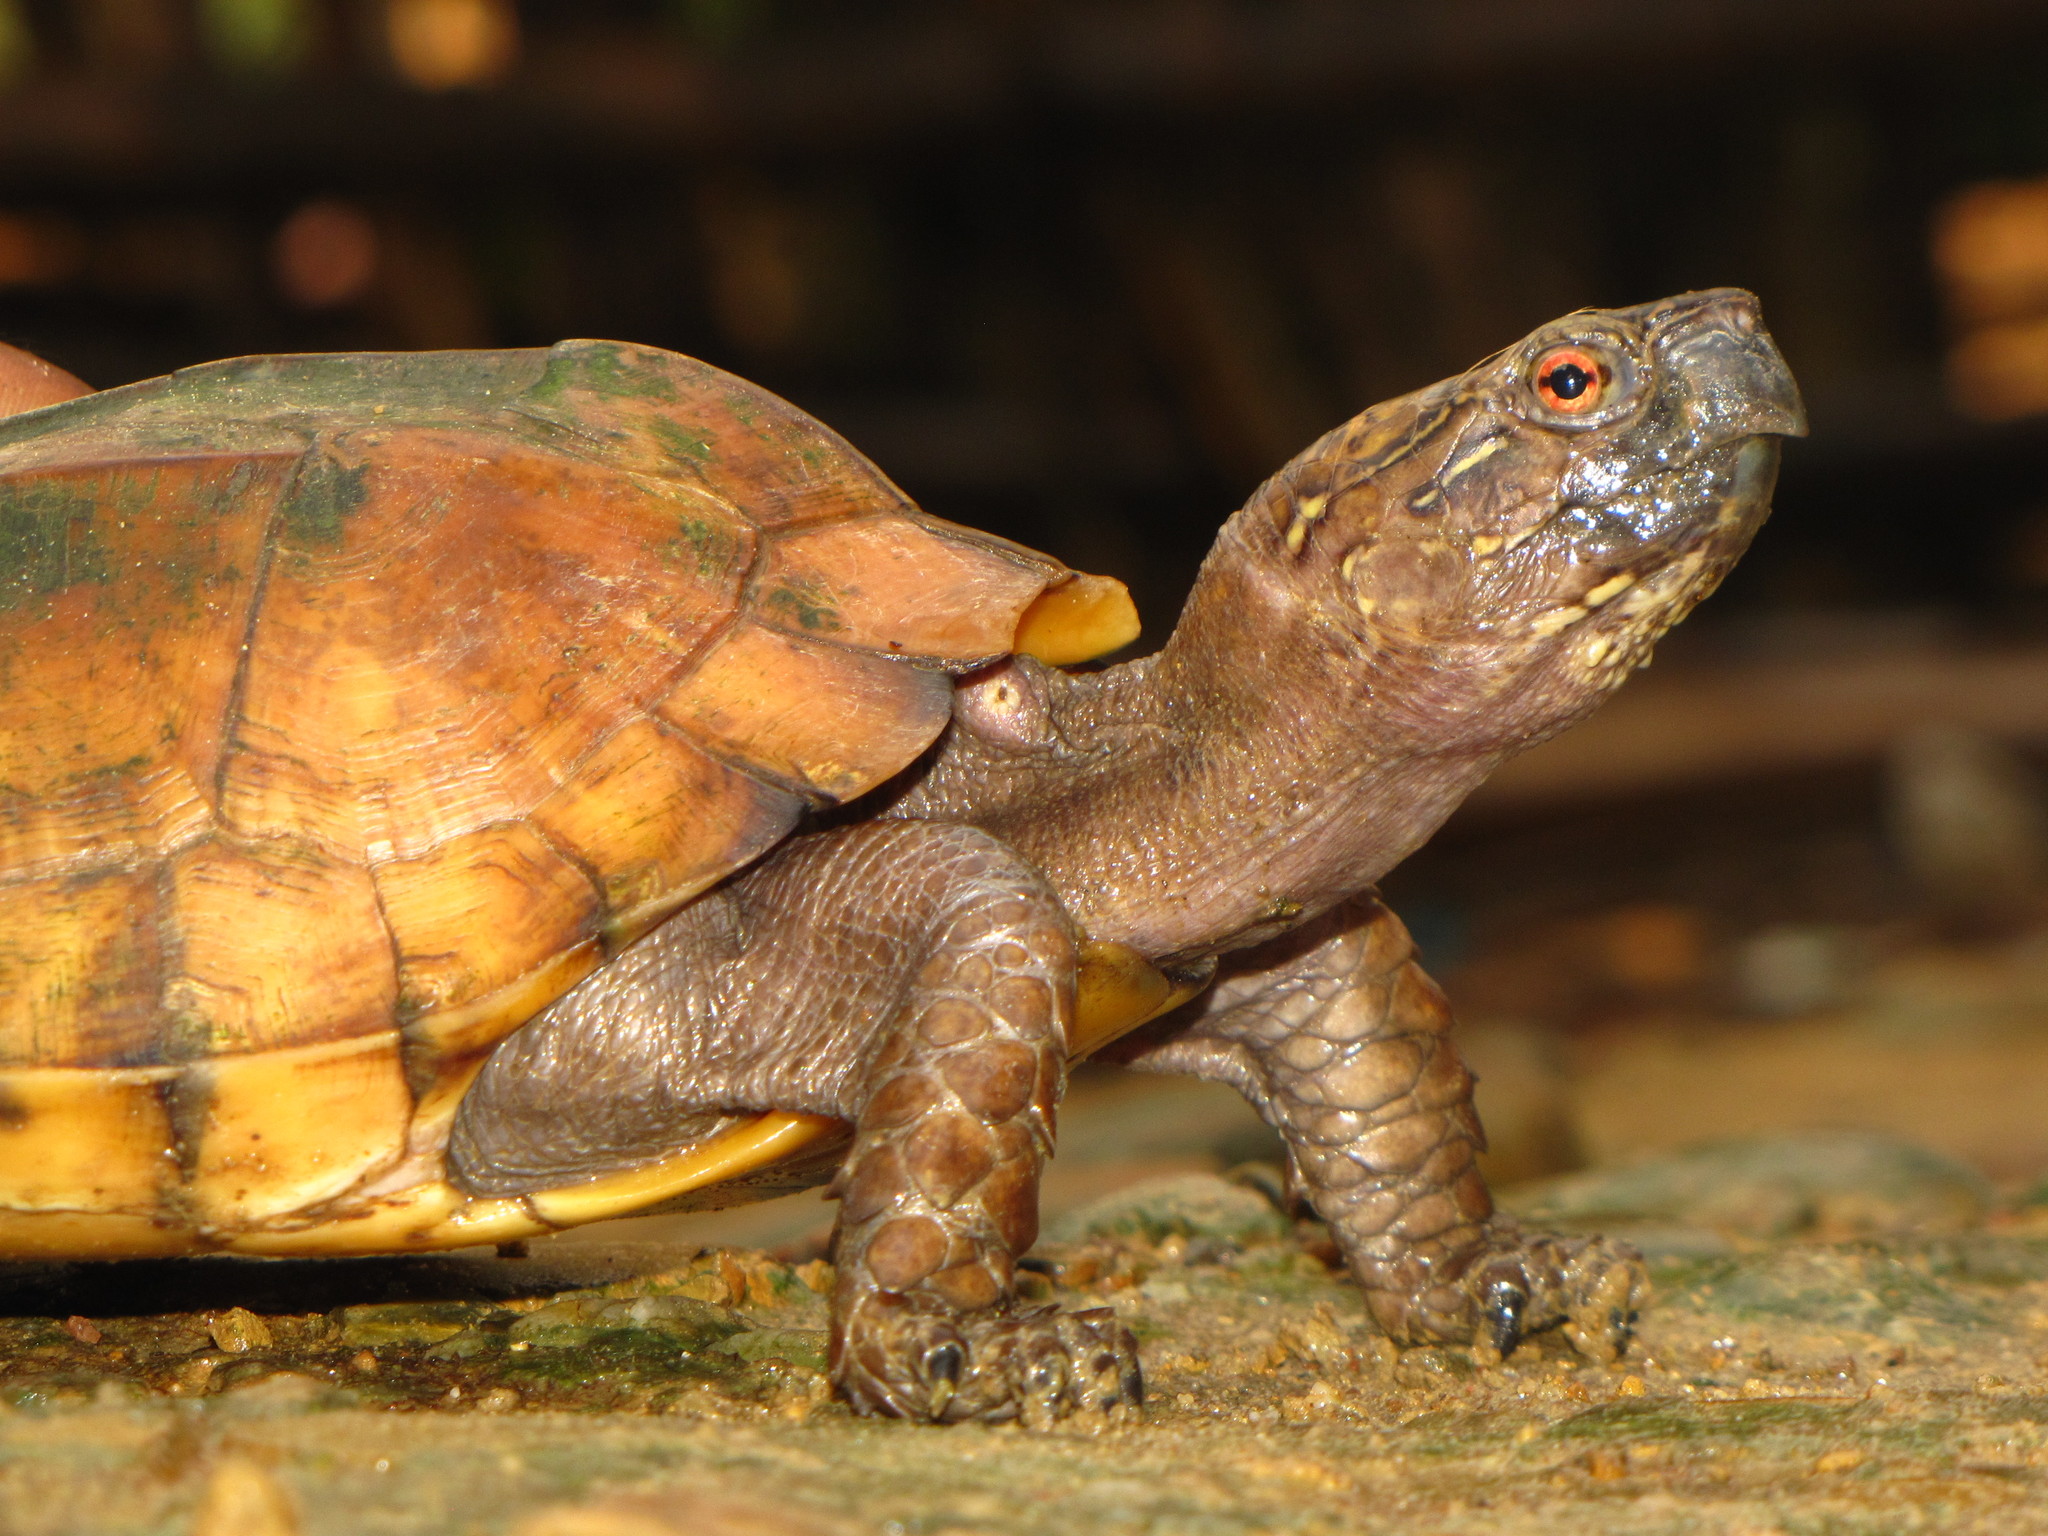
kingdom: Animalia
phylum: Chordata
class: Testudines
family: Geoemydidae
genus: Cuora
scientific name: Cuora mouhotii
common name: Keeled box turtle
